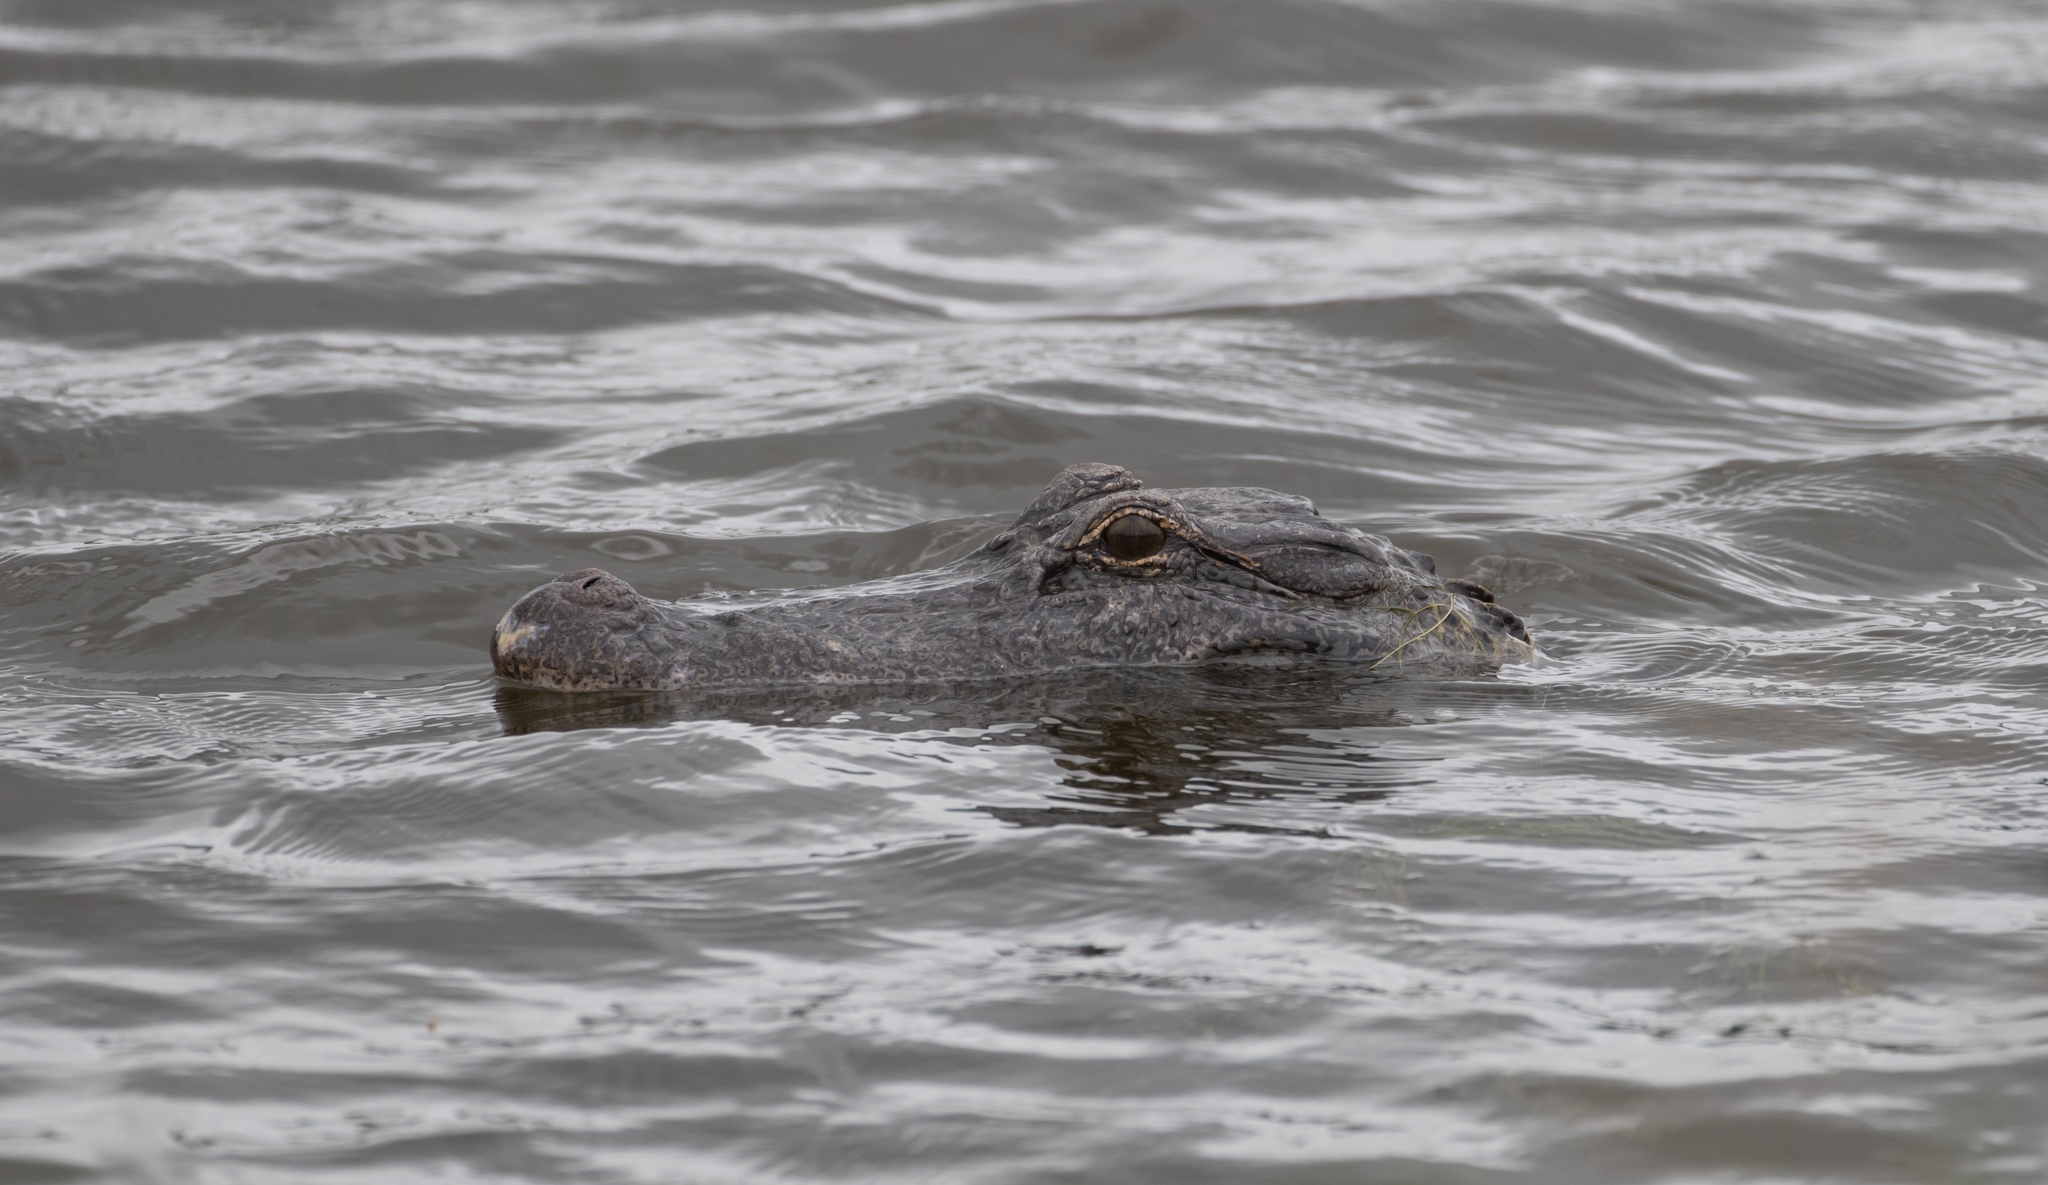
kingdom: Animalia
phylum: Chordata
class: Crocodylia
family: Alligatoridae
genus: Alligator
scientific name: Alligator mississippiensis
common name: American alligator
